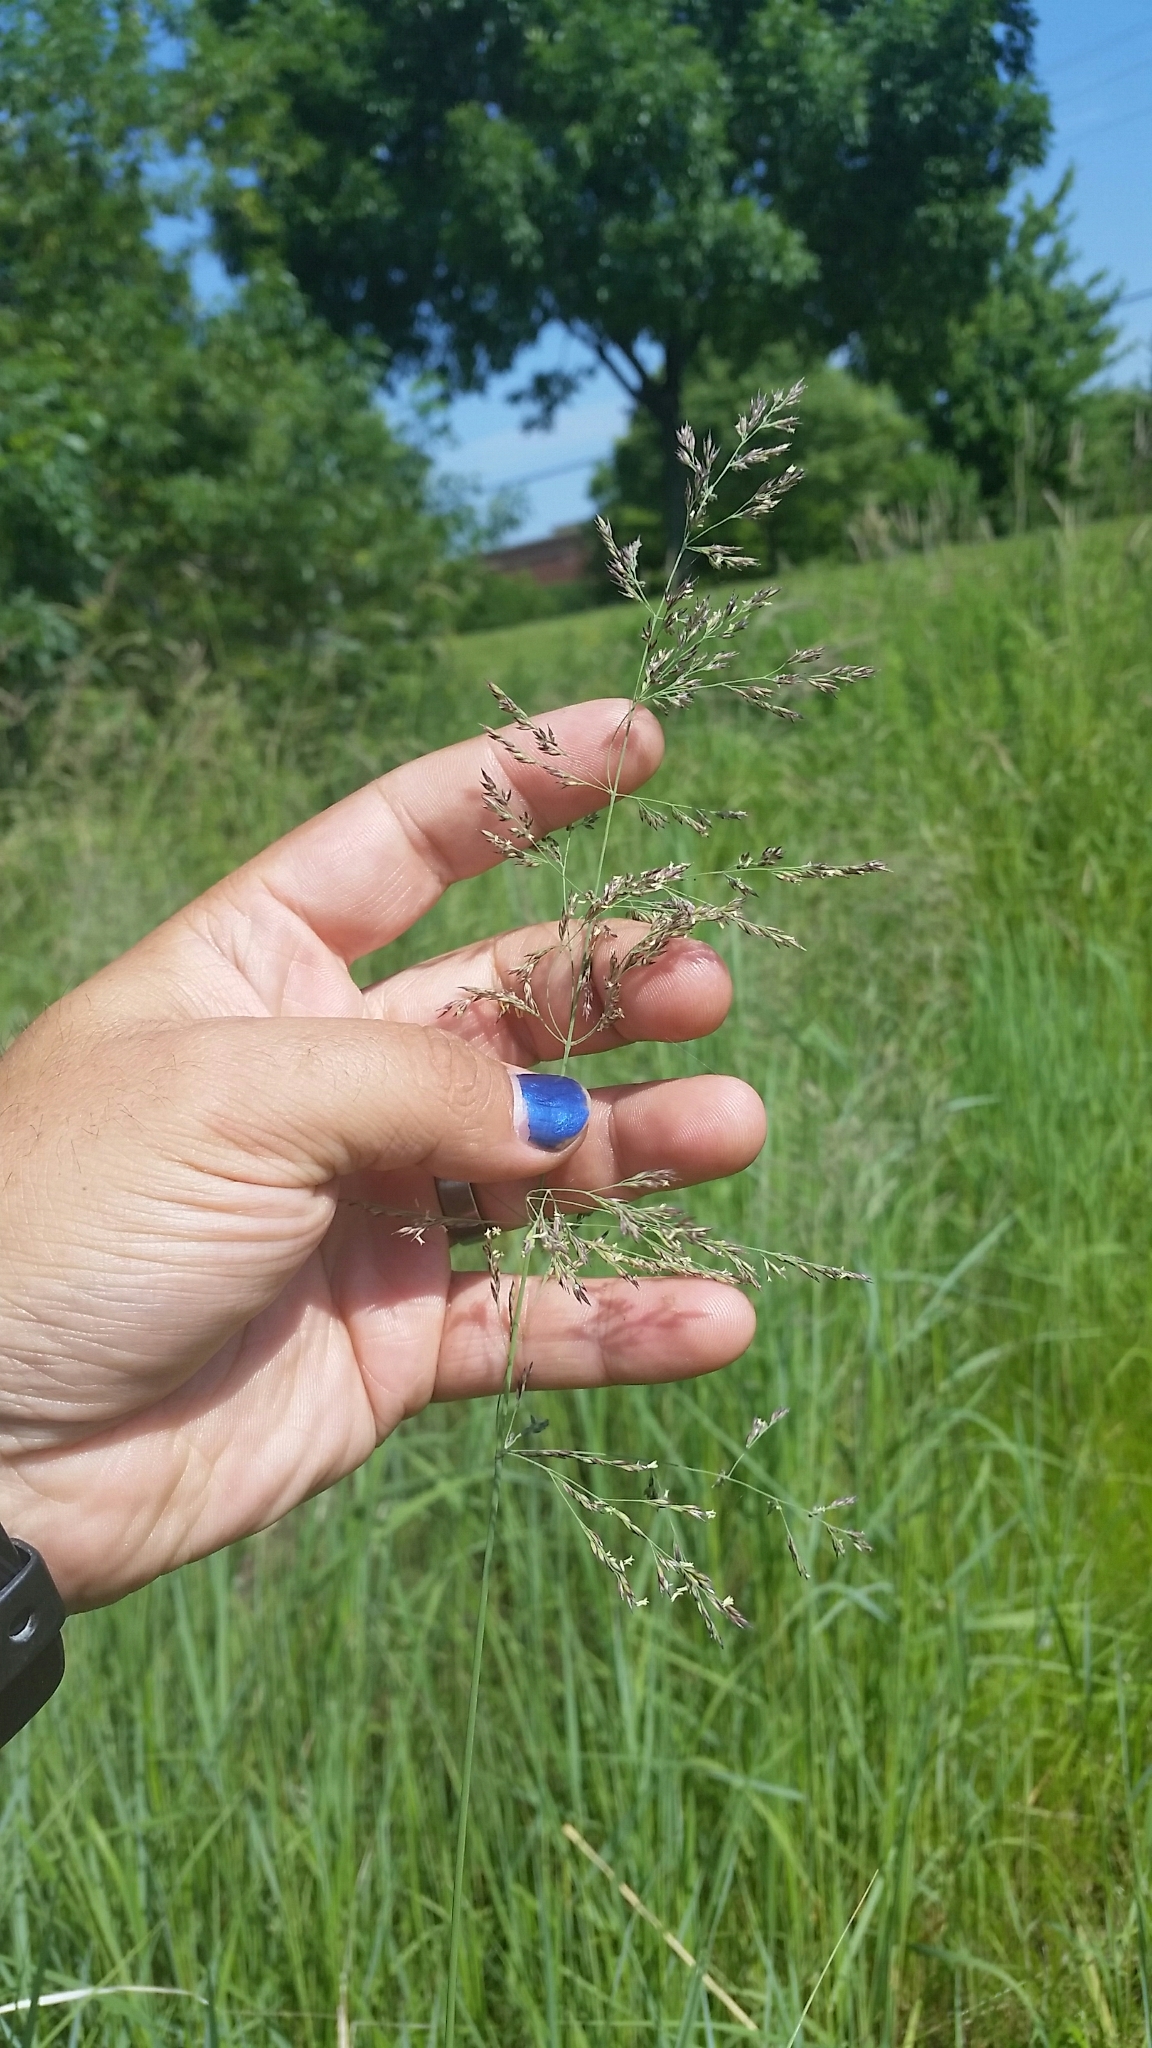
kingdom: Plantae
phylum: Tracheophyta
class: Liliopsida
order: Poales
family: Poaceae
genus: Calamagrostis
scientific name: Calamagrostis canadensis
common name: Canada bluejoint
